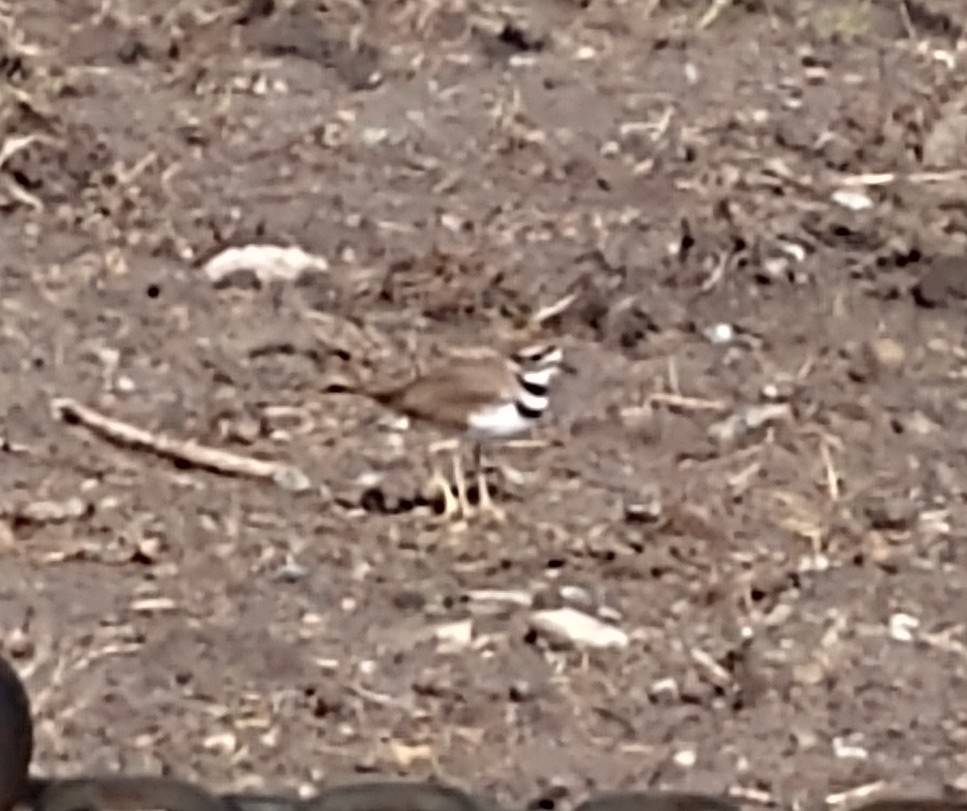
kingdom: Animalia
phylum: Chordata
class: Aves
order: Charadriiformes
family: Charadriidae
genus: Charadrius
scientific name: Charadrius vociferus
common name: Killdeer
